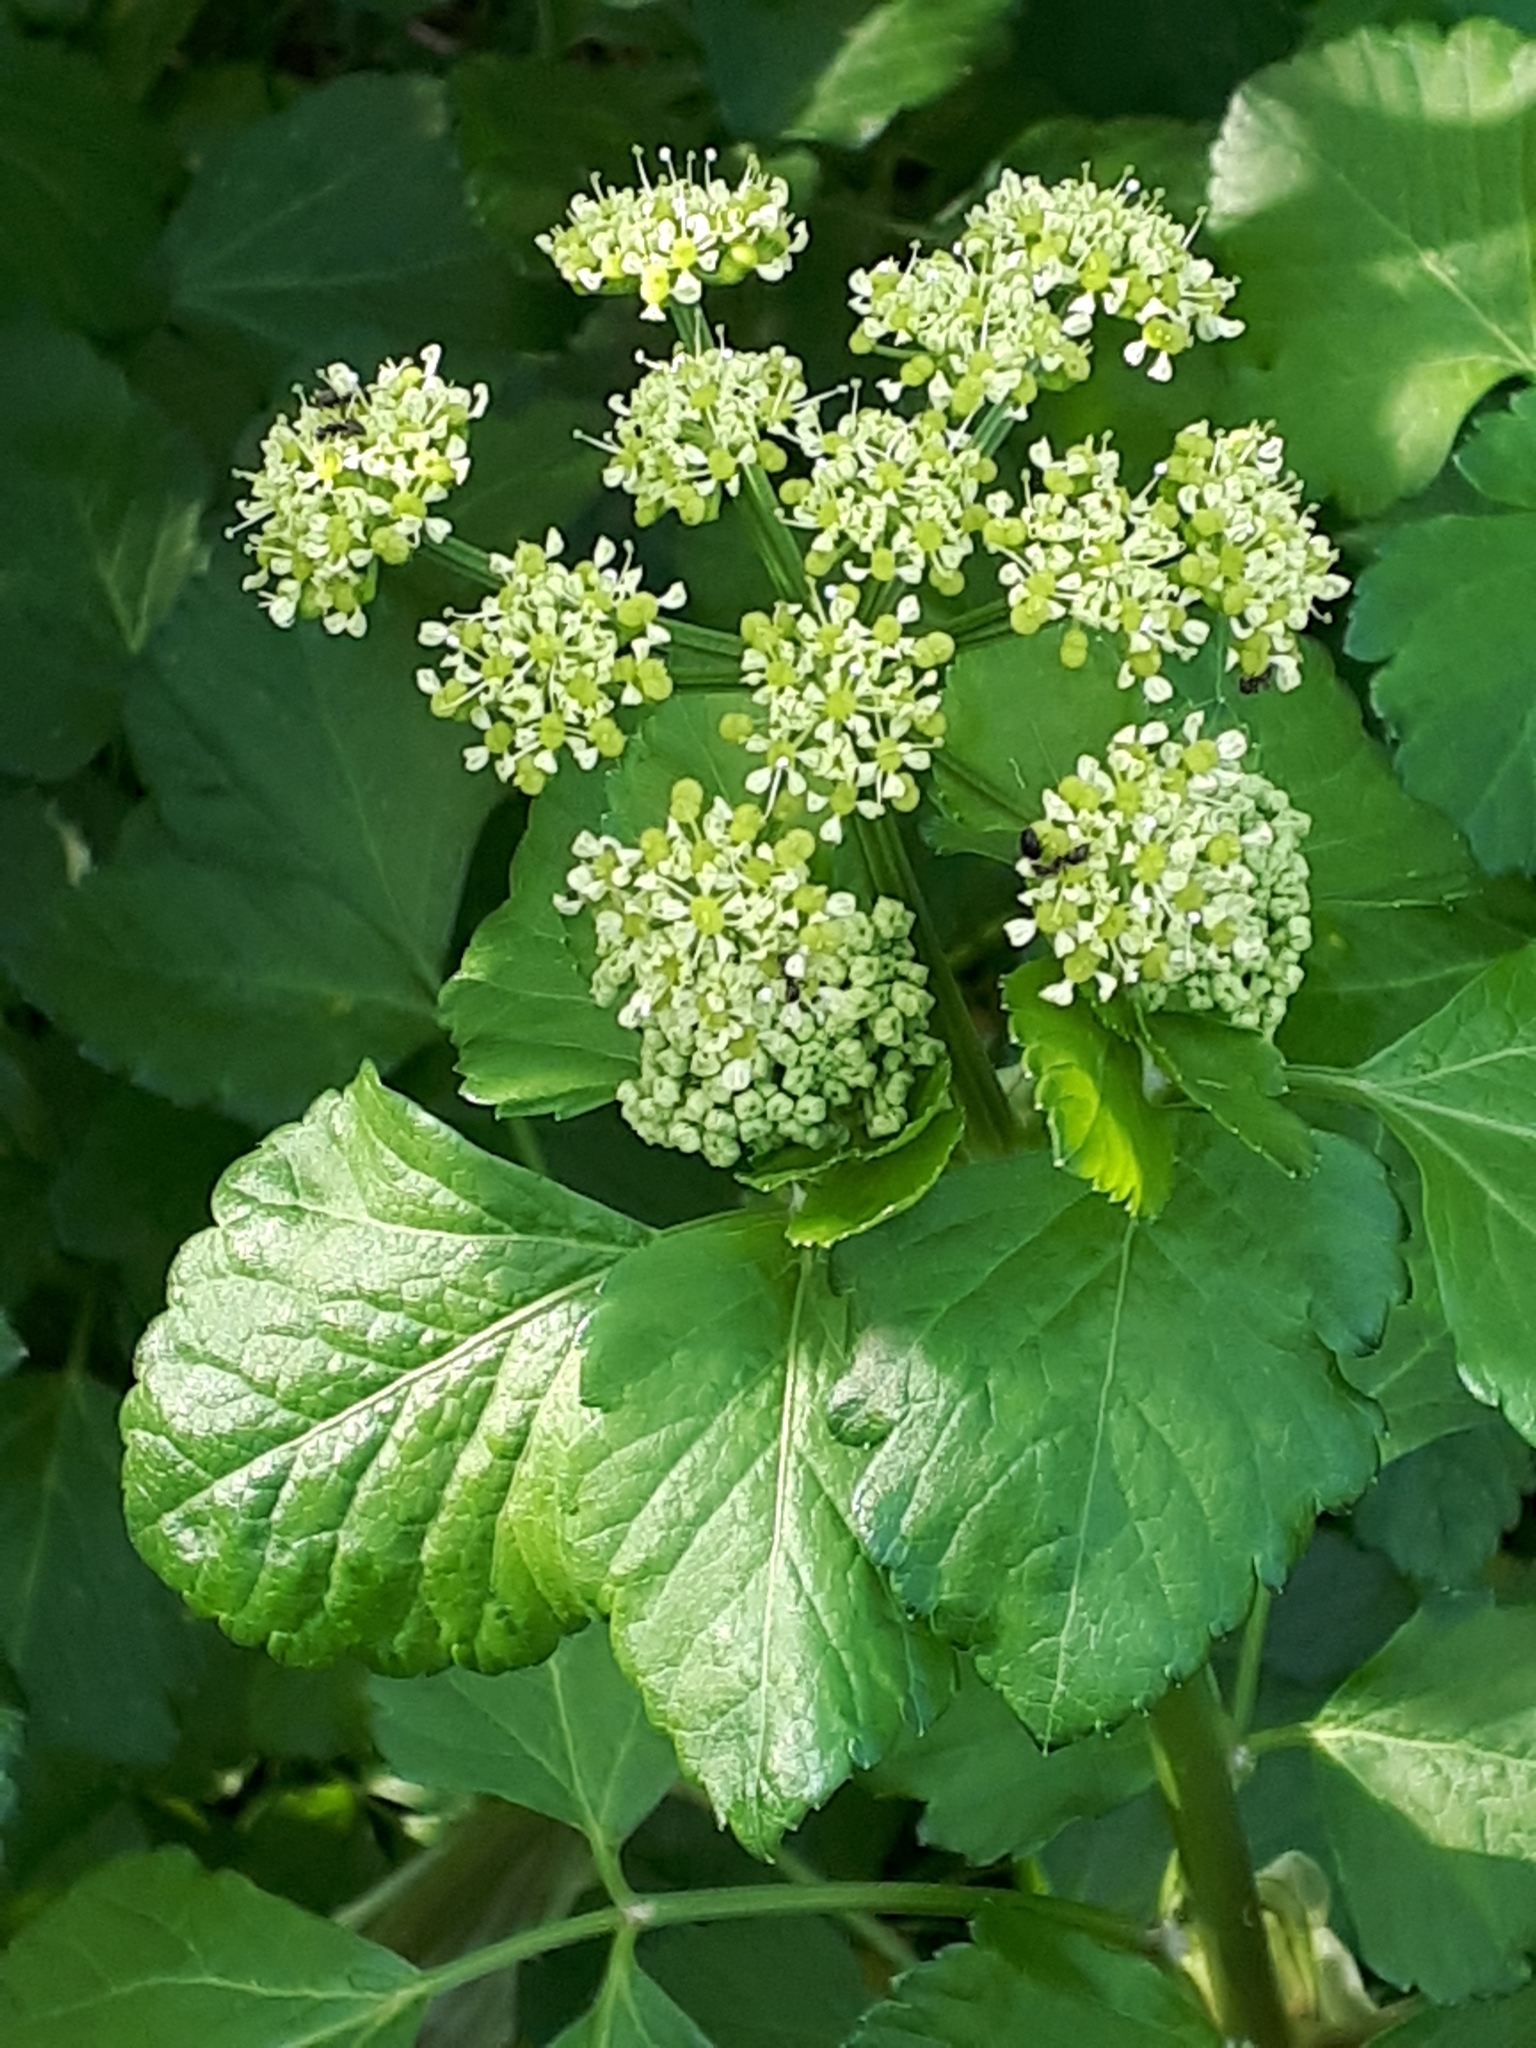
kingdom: Plantae
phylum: Tracheophyta
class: Magnoliopsida
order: Apiales
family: Apiaceae
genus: Smyrnium
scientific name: Smyrnium olusatrum
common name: Alexanders
